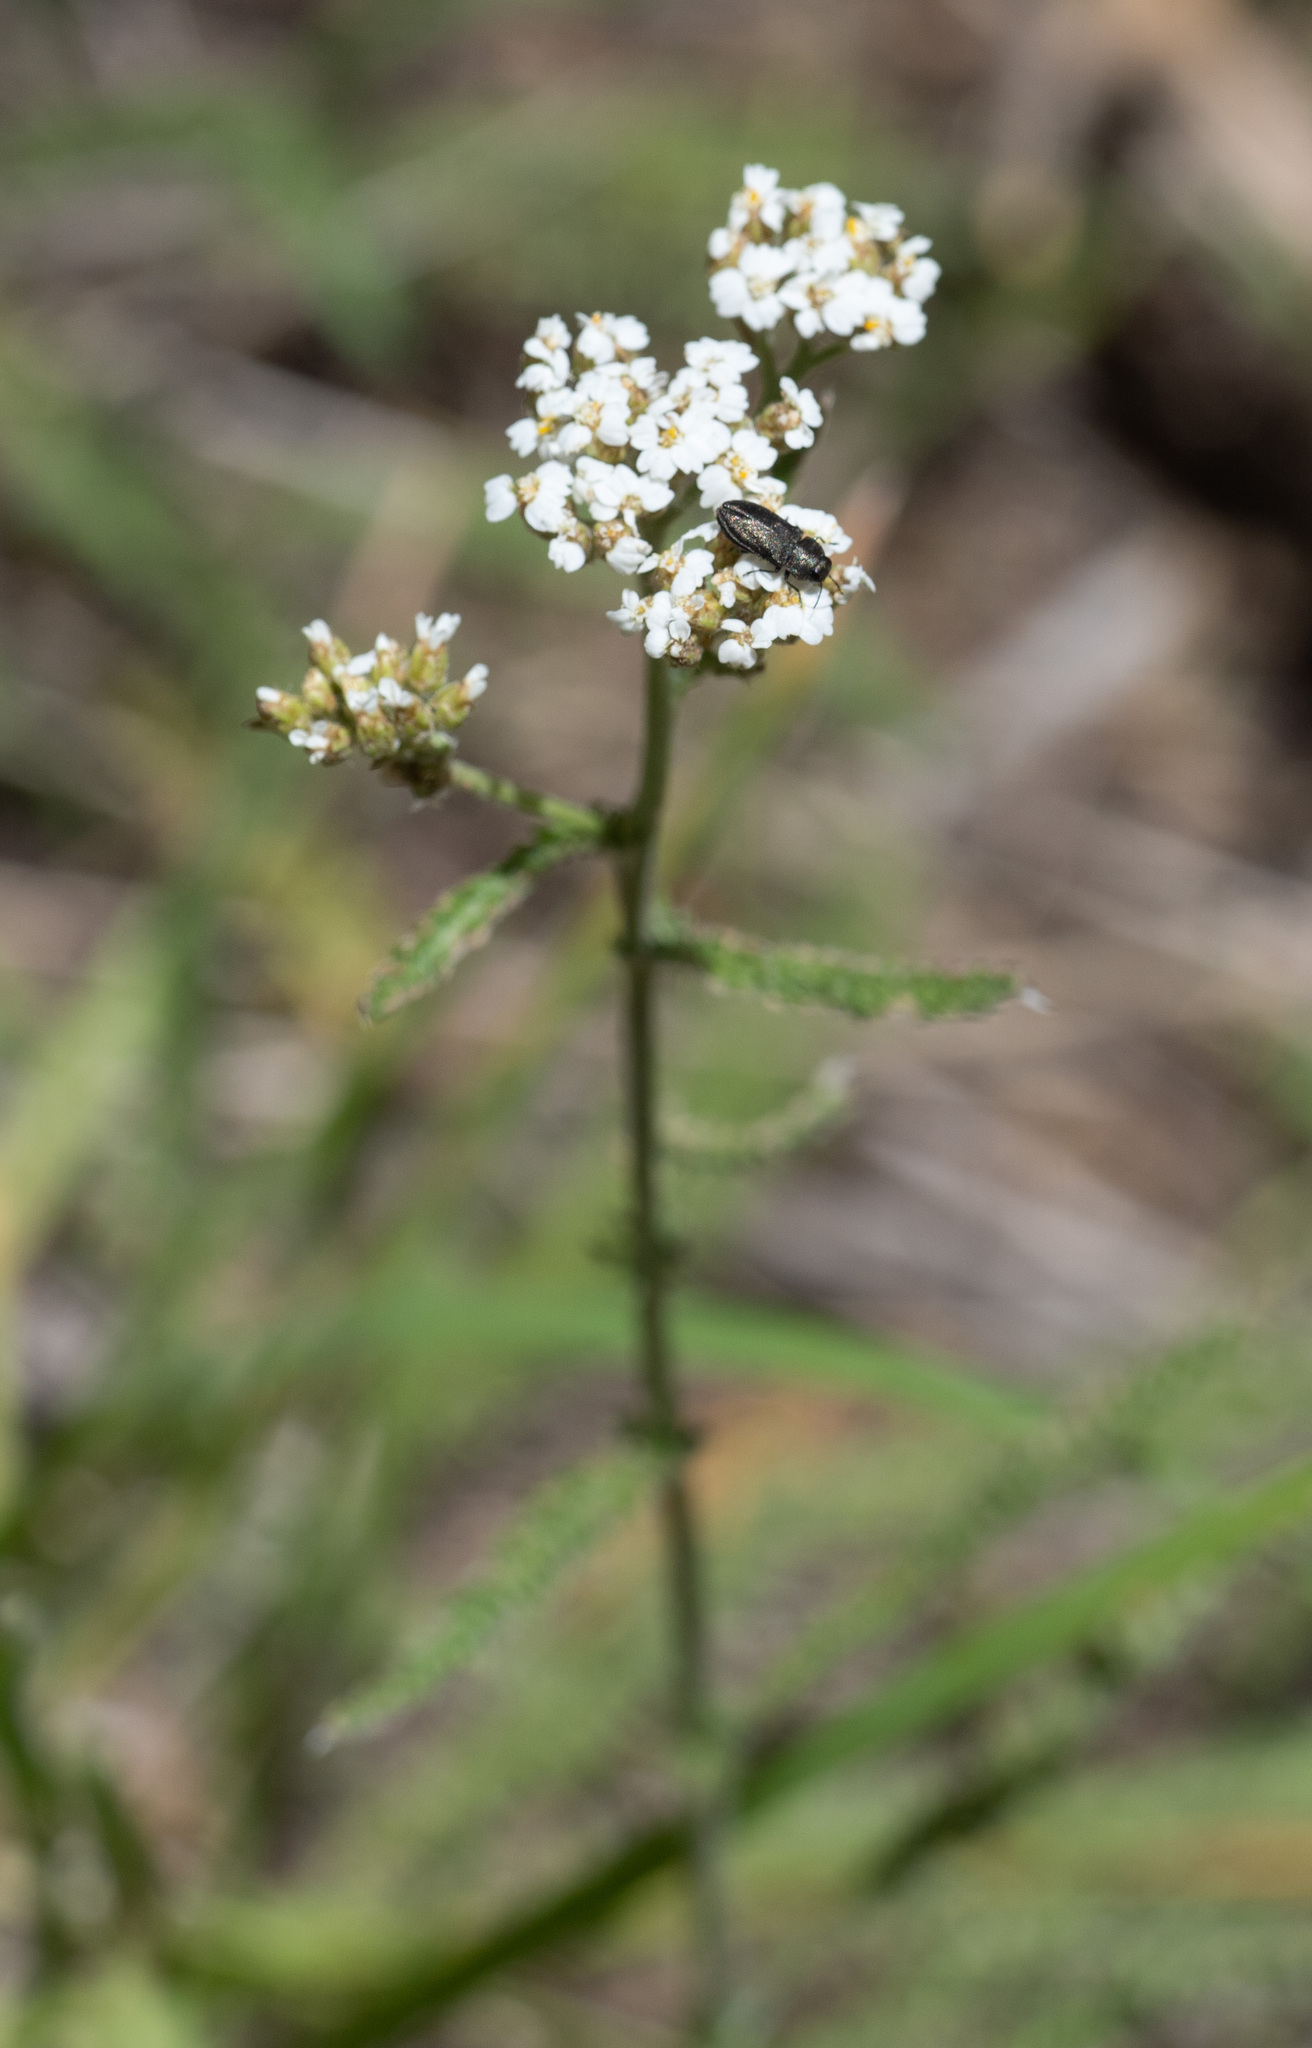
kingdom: Plantae
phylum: Tracheophyta
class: Magnoliopsida
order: Asterales
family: Asteraceae
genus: Achillea
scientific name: Achillea millefolium
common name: Yarrow
